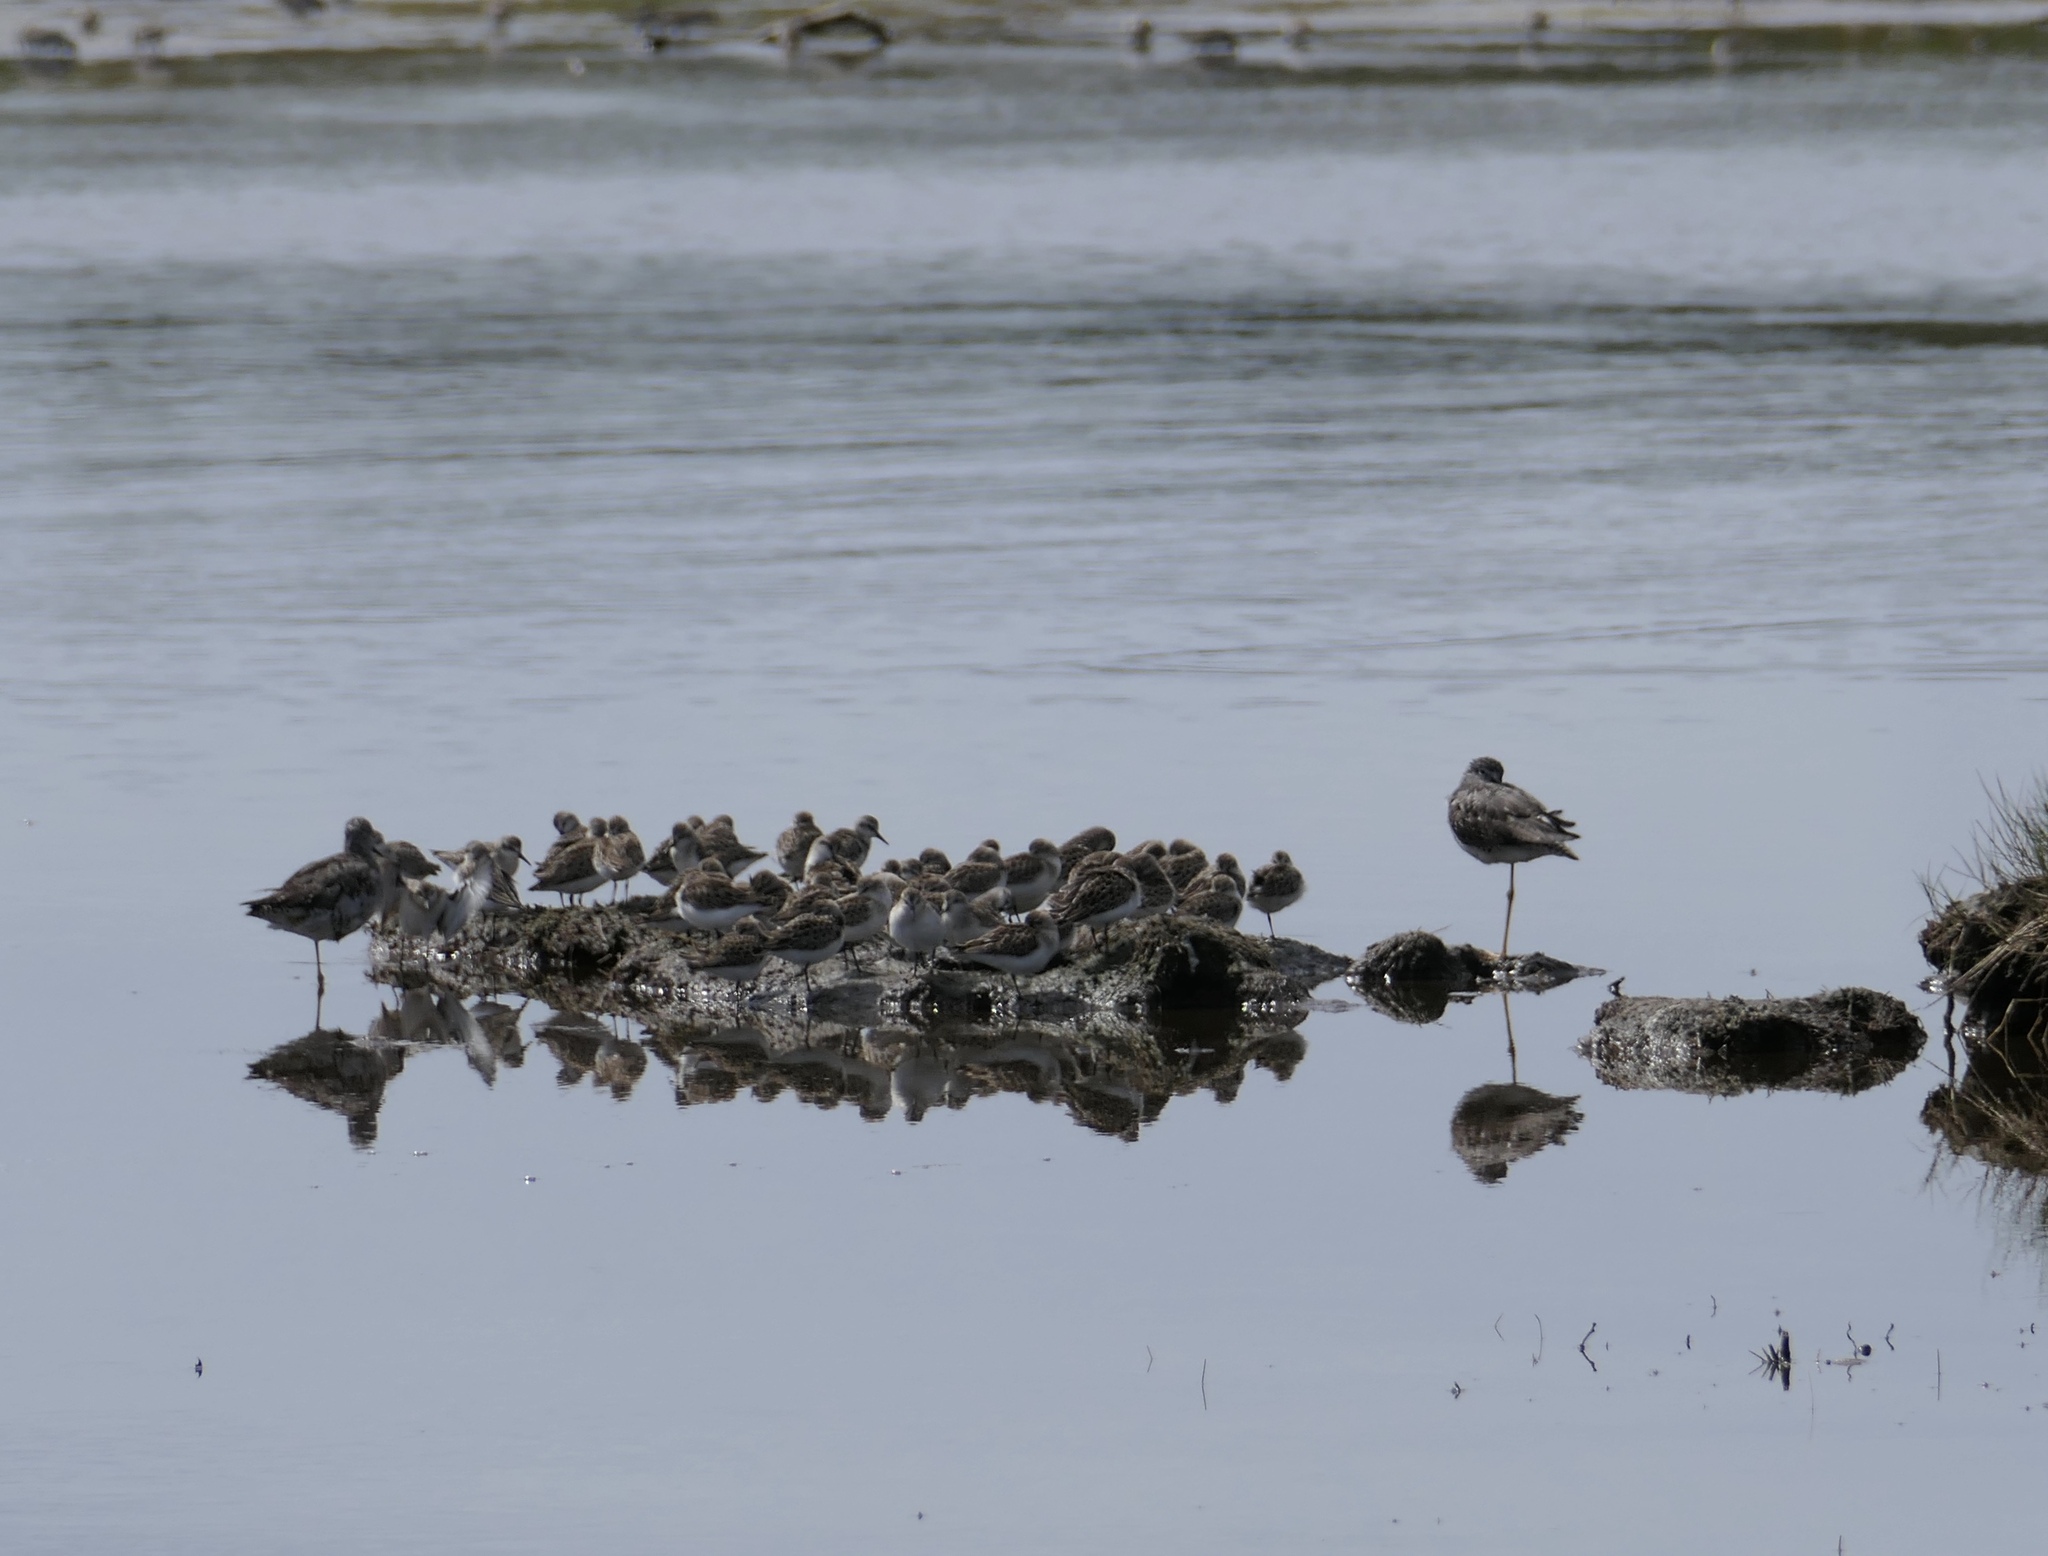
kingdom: Animalia
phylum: Chordata
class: Aves
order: Charadriiformes
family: Scolopacidae
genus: Calidris
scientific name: Calidris pusilla
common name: Semipalmated sandpiper
